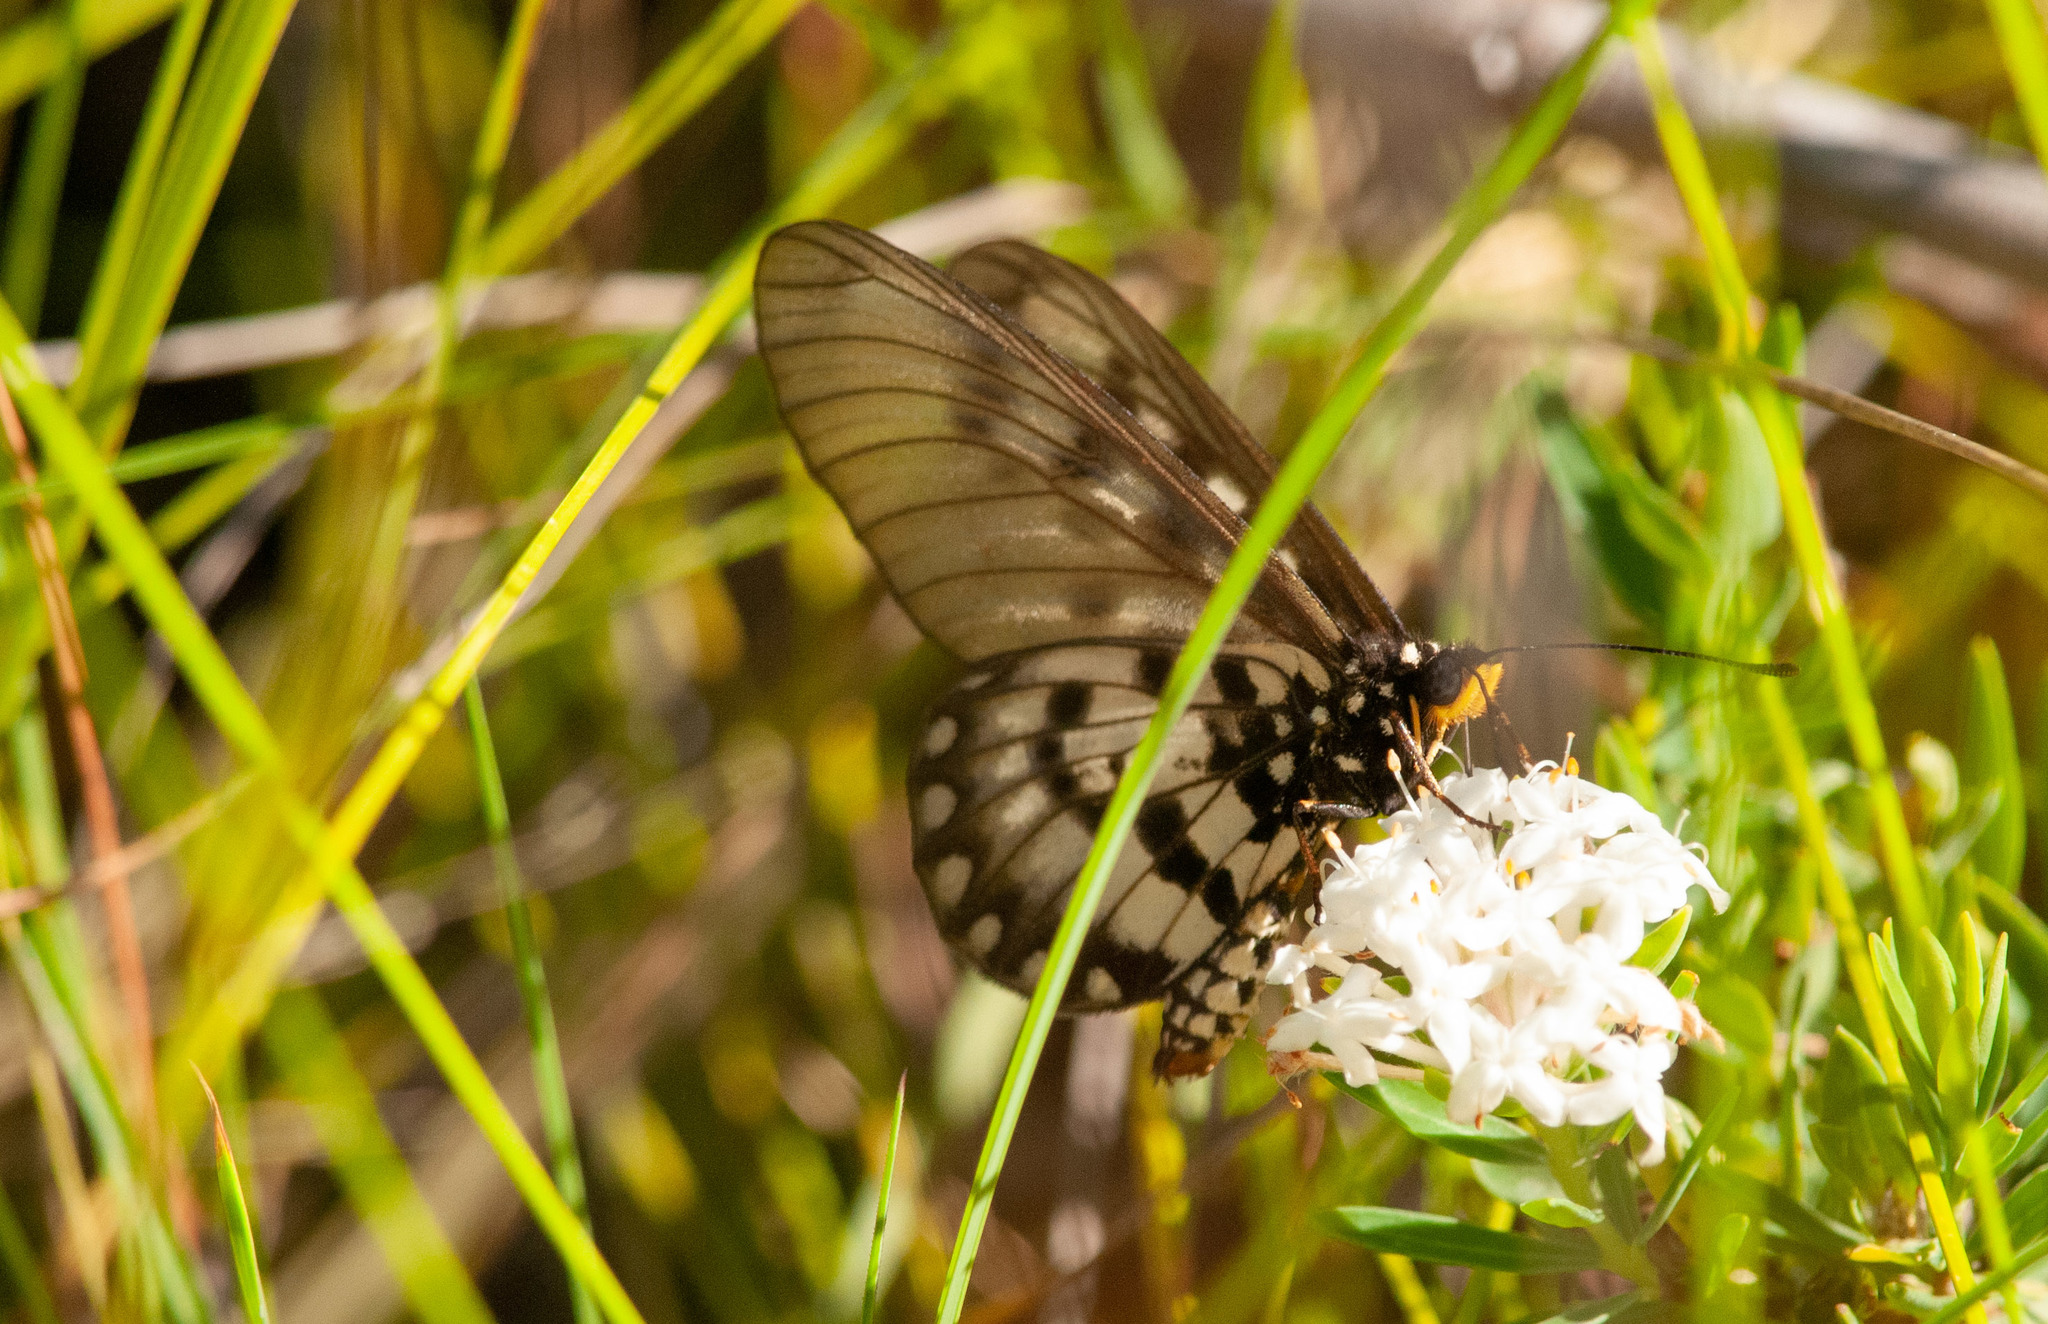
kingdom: Animalia
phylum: Arthropoda
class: Insecta
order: Lepidoptera
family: Nymphalidae
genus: Acraea
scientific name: Acraea andromacha
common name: Glasswing
